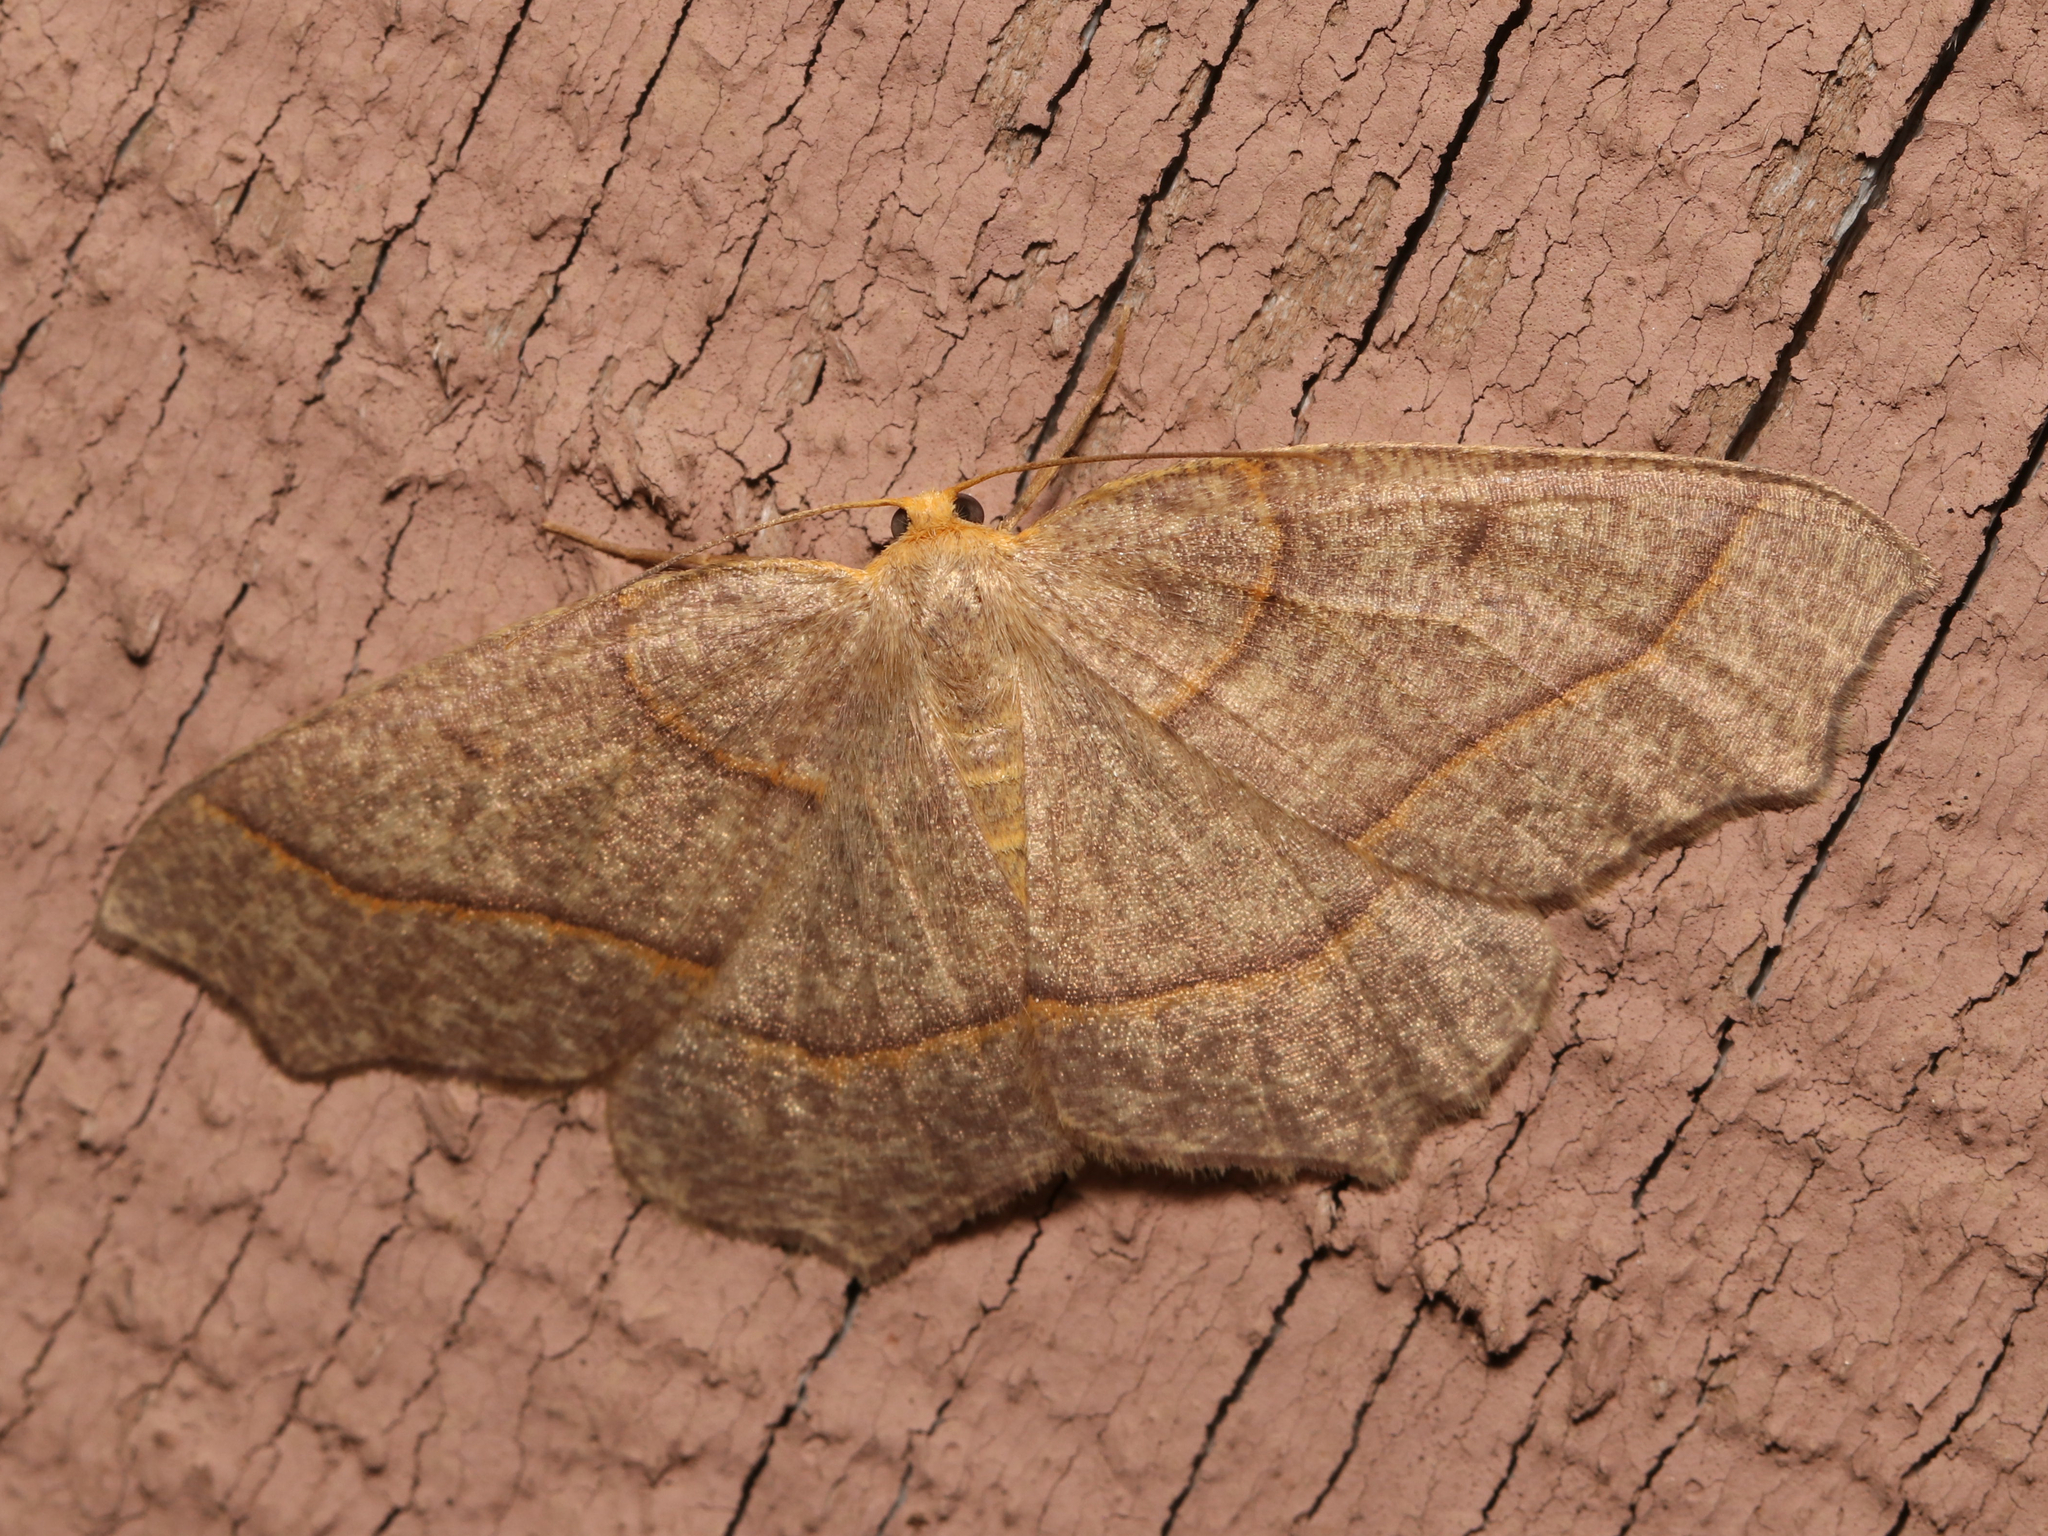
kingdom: Animalia
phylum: Arthropoda
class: Insecta
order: Lepidoptera
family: Geometridae
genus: Lambdina
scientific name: Lambdina fiscellaria
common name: Hemlock looper
